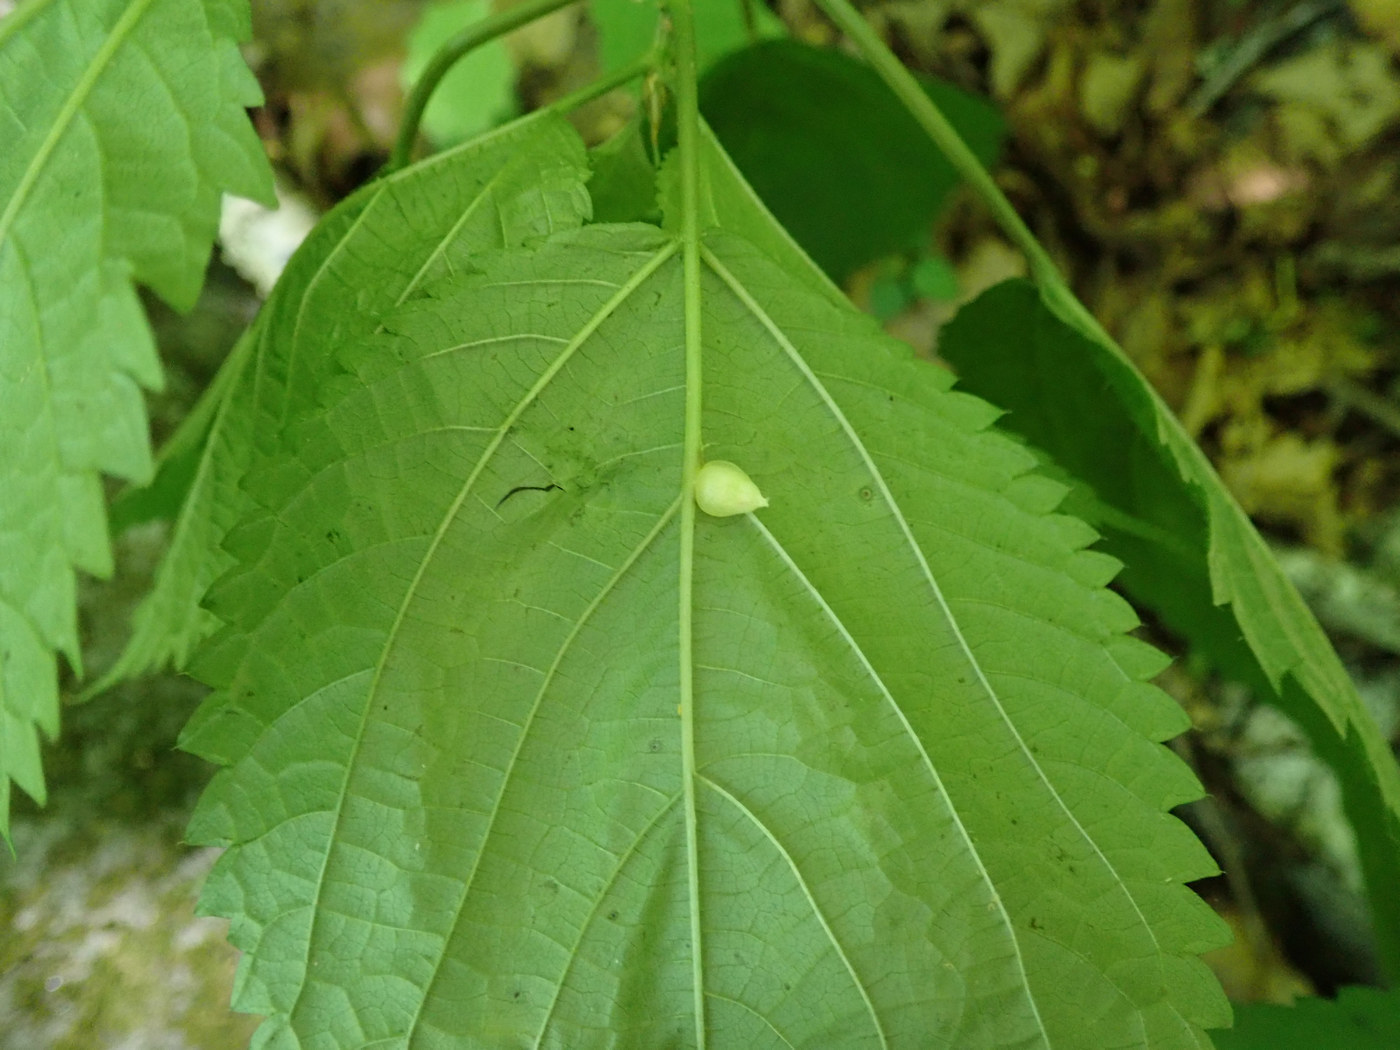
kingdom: Animalia
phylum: Arthropoda
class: Insecta
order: Diptera
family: Cecidomyiidae
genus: Dasineura
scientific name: Dasineura investita
